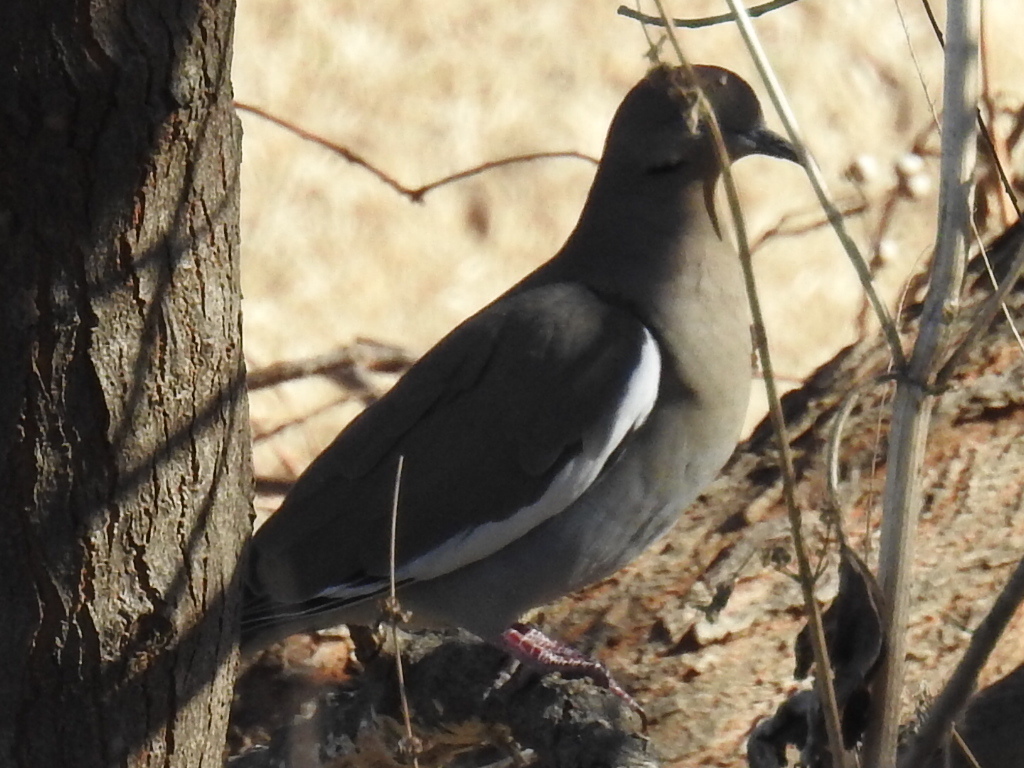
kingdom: Animalia
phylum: Chordata
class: Aves
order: Columbiformes
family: Columbidae
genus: Zenaida
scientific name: Zenaida asiatica
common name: White-winged dove
